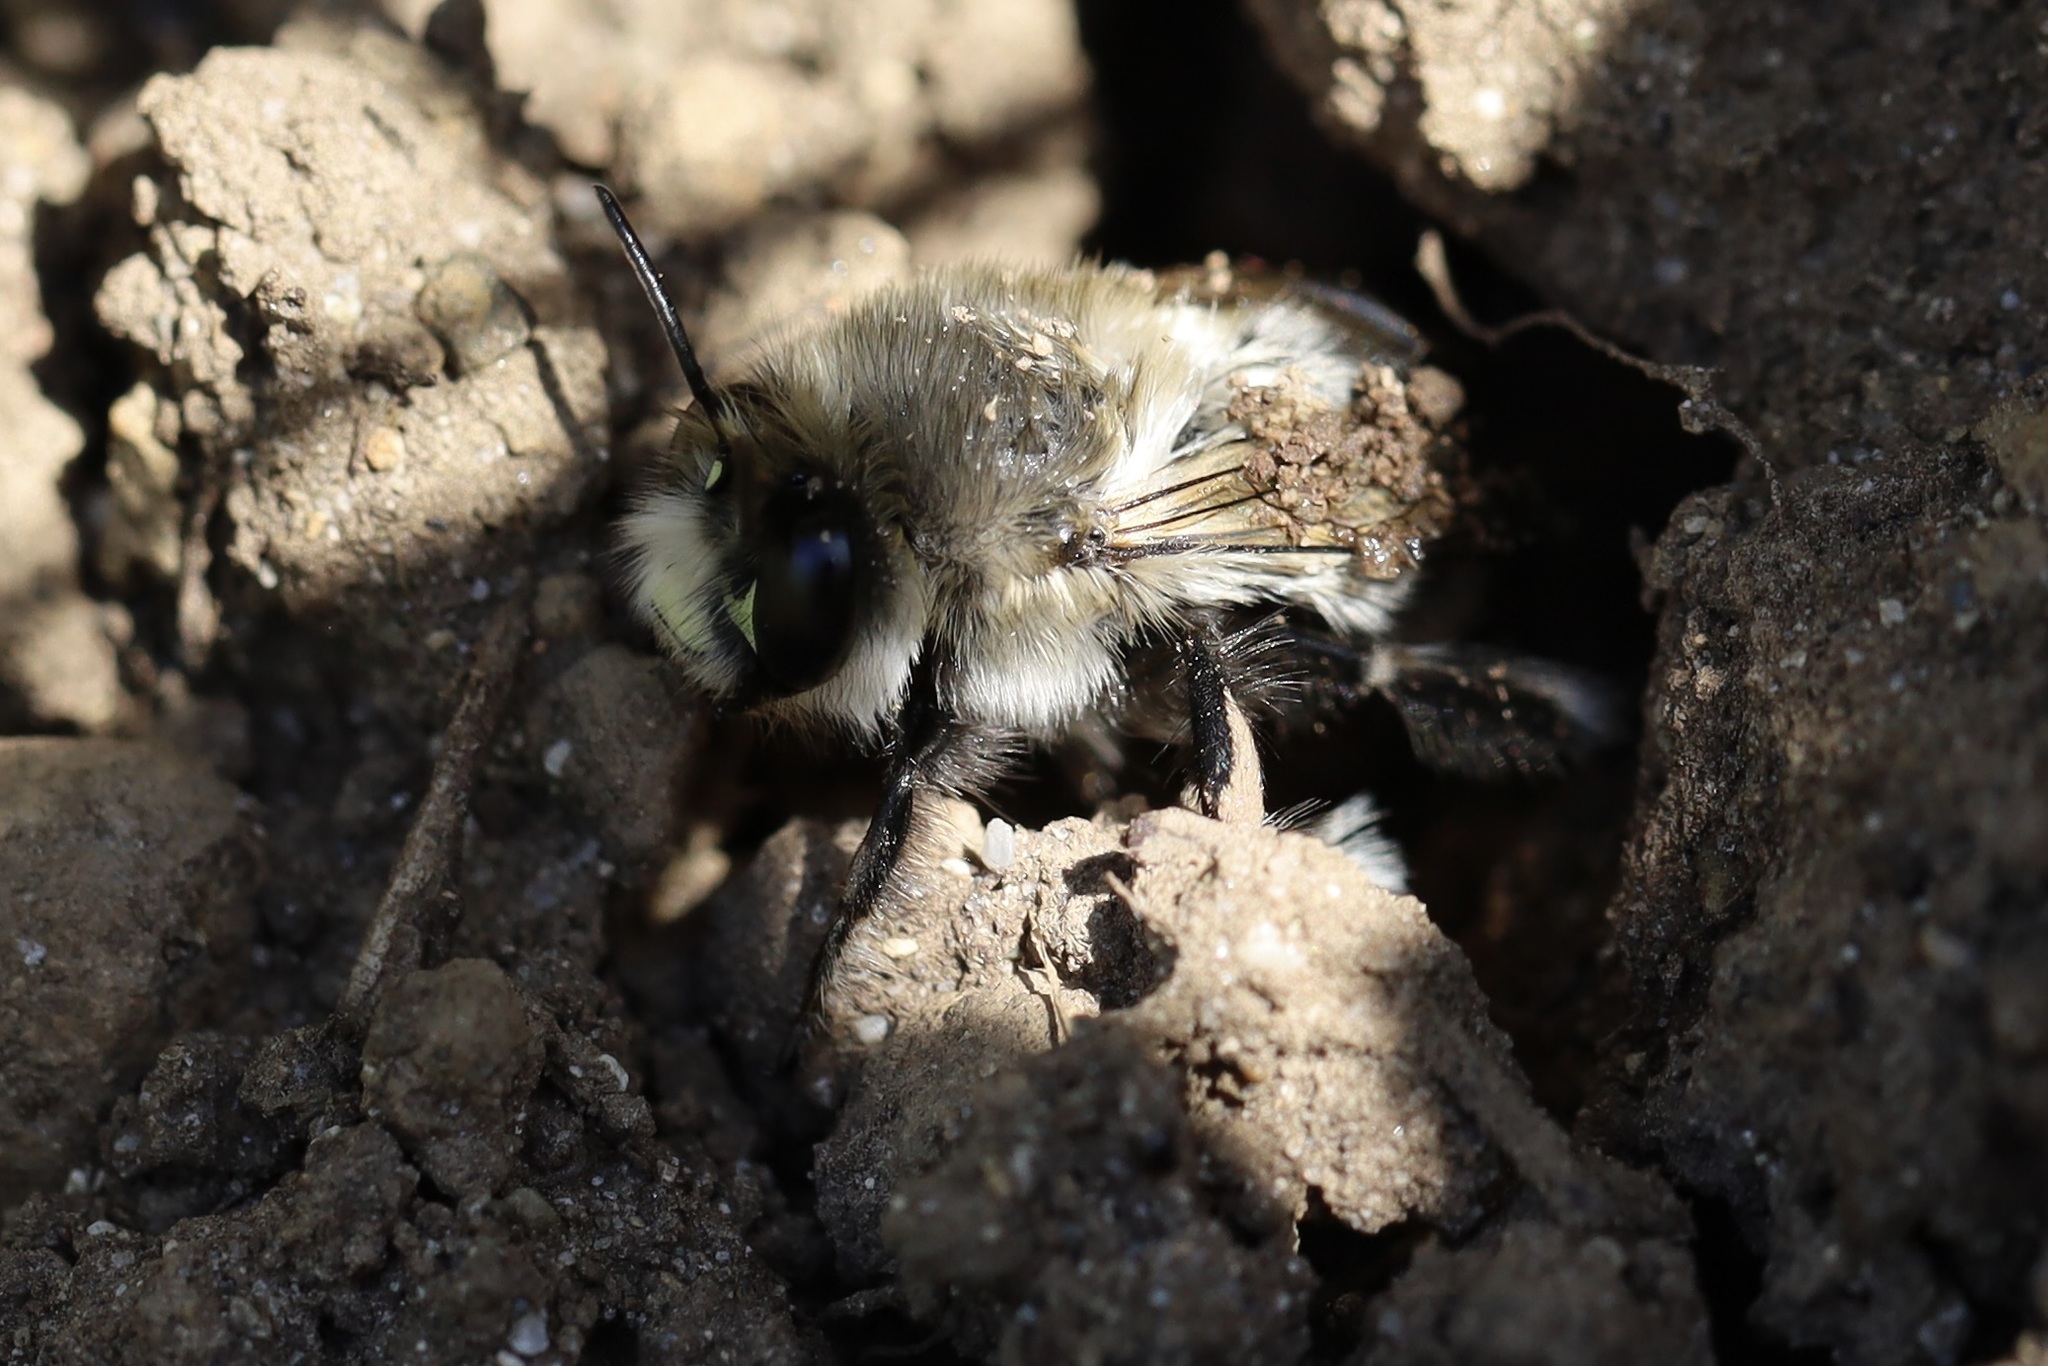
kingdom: Animalia
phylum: Arthropoda
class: Insecta
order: Hymenoptera
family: Apidae
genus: Anthophora
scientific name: Anthophora pacifica
